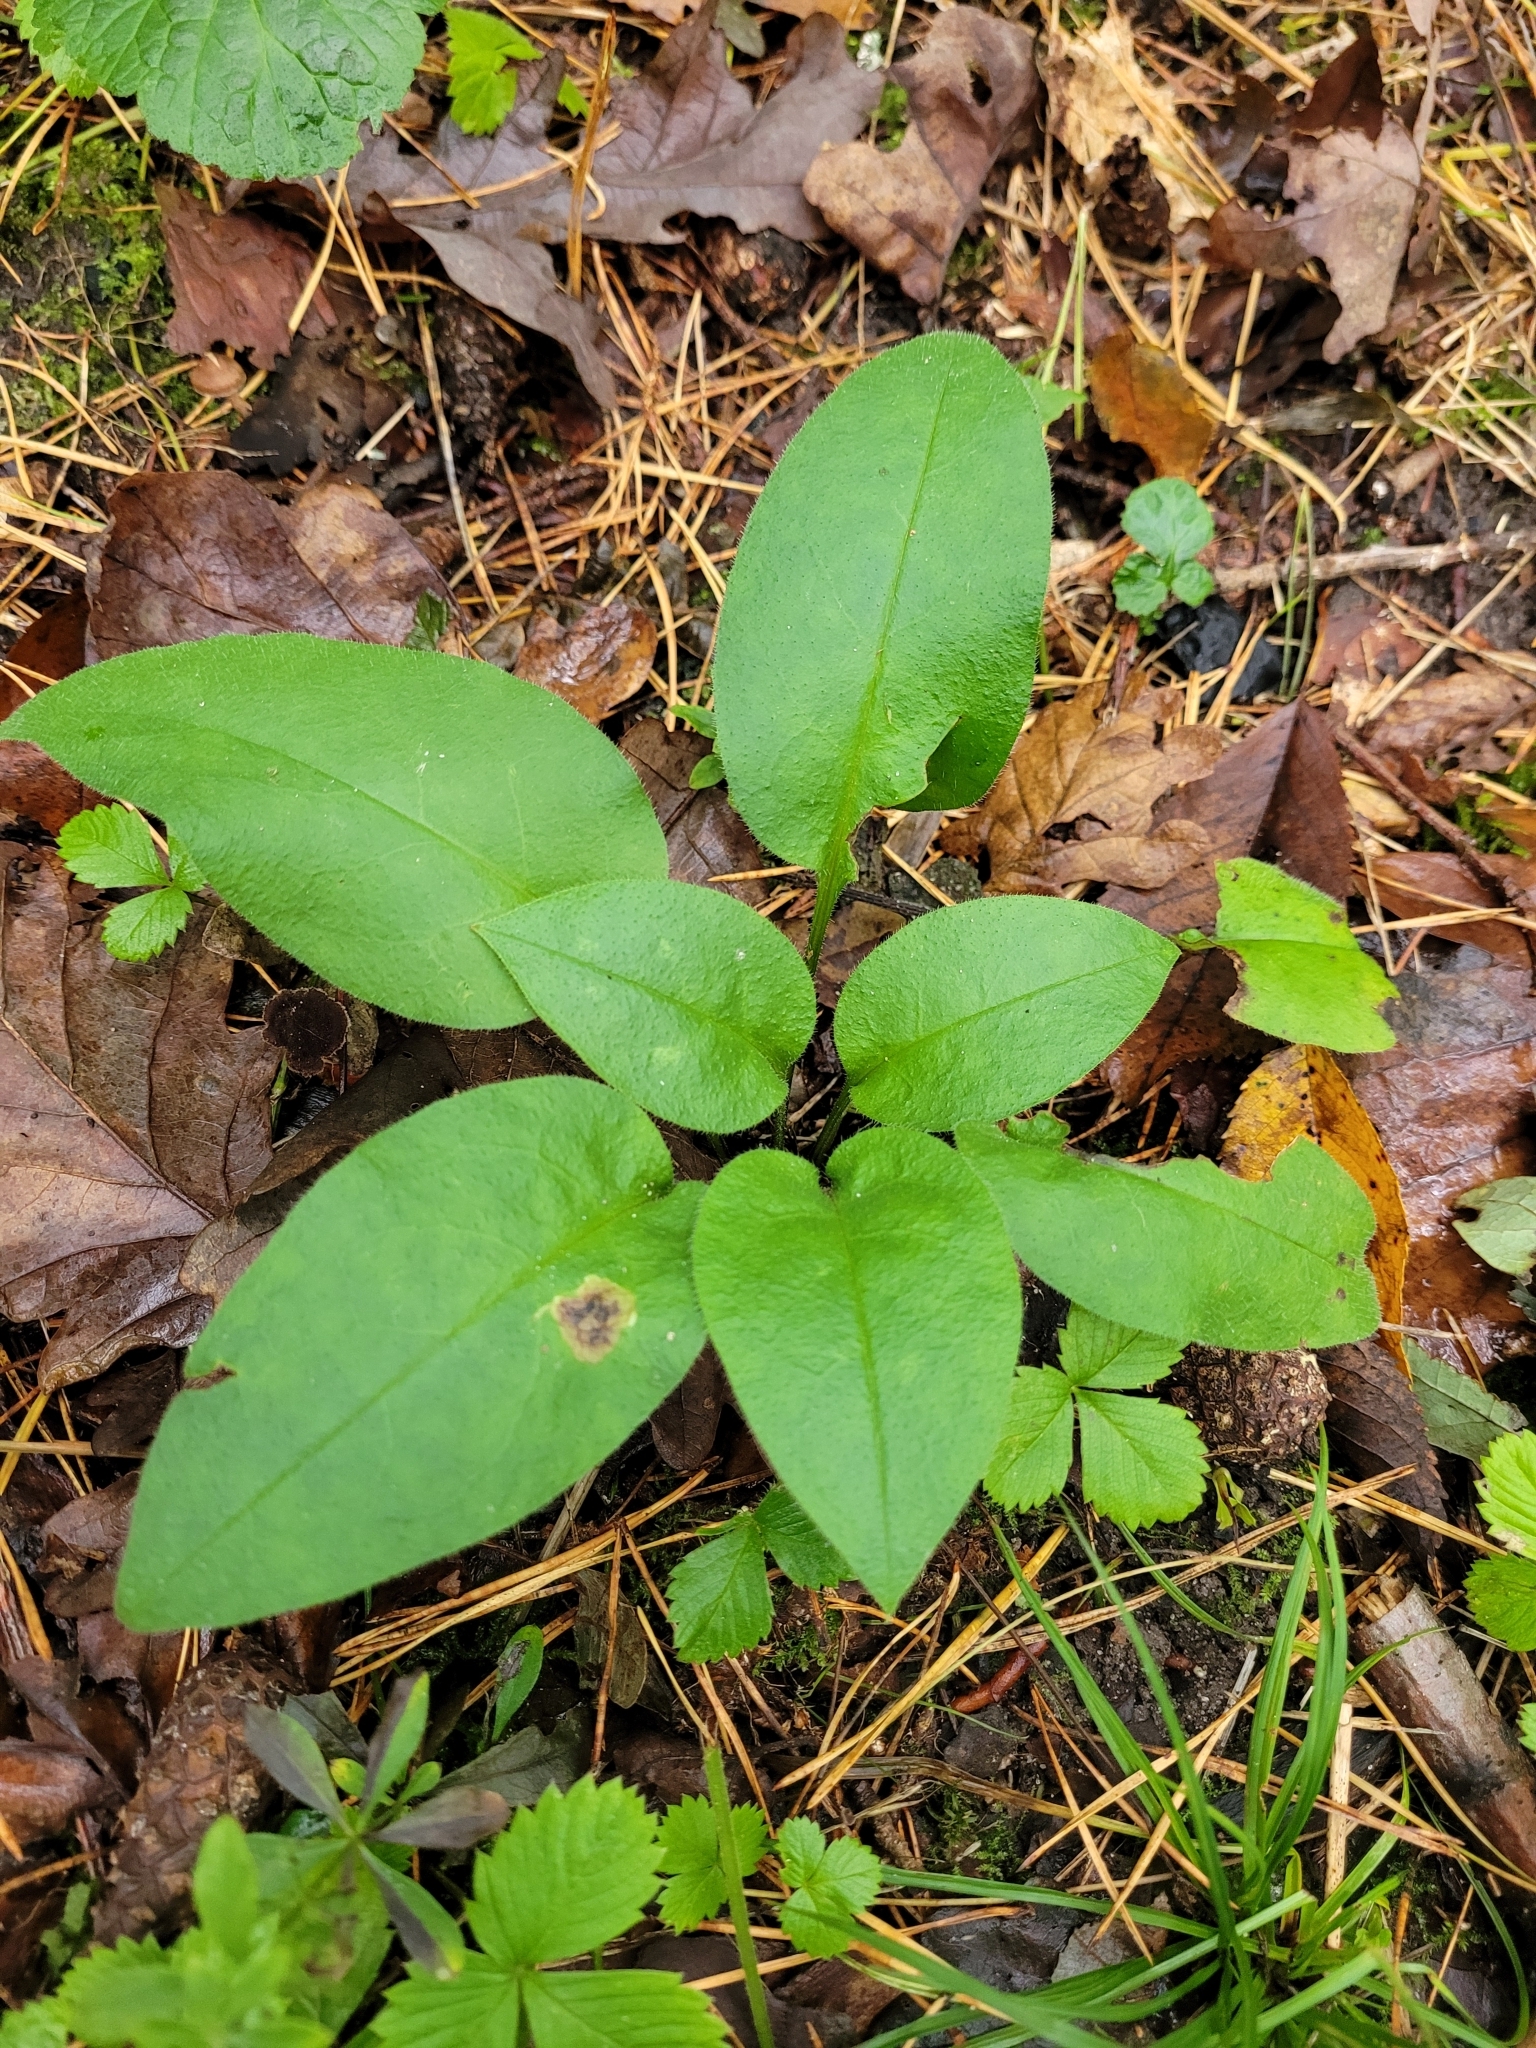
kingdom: Plantae
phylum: Tracheophyta
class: Magnoliopsida
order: Boraginales
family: Boraginaceae
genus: Pulmonaria
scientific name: Pulmonaria obscura
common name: Suffolk lungwort
